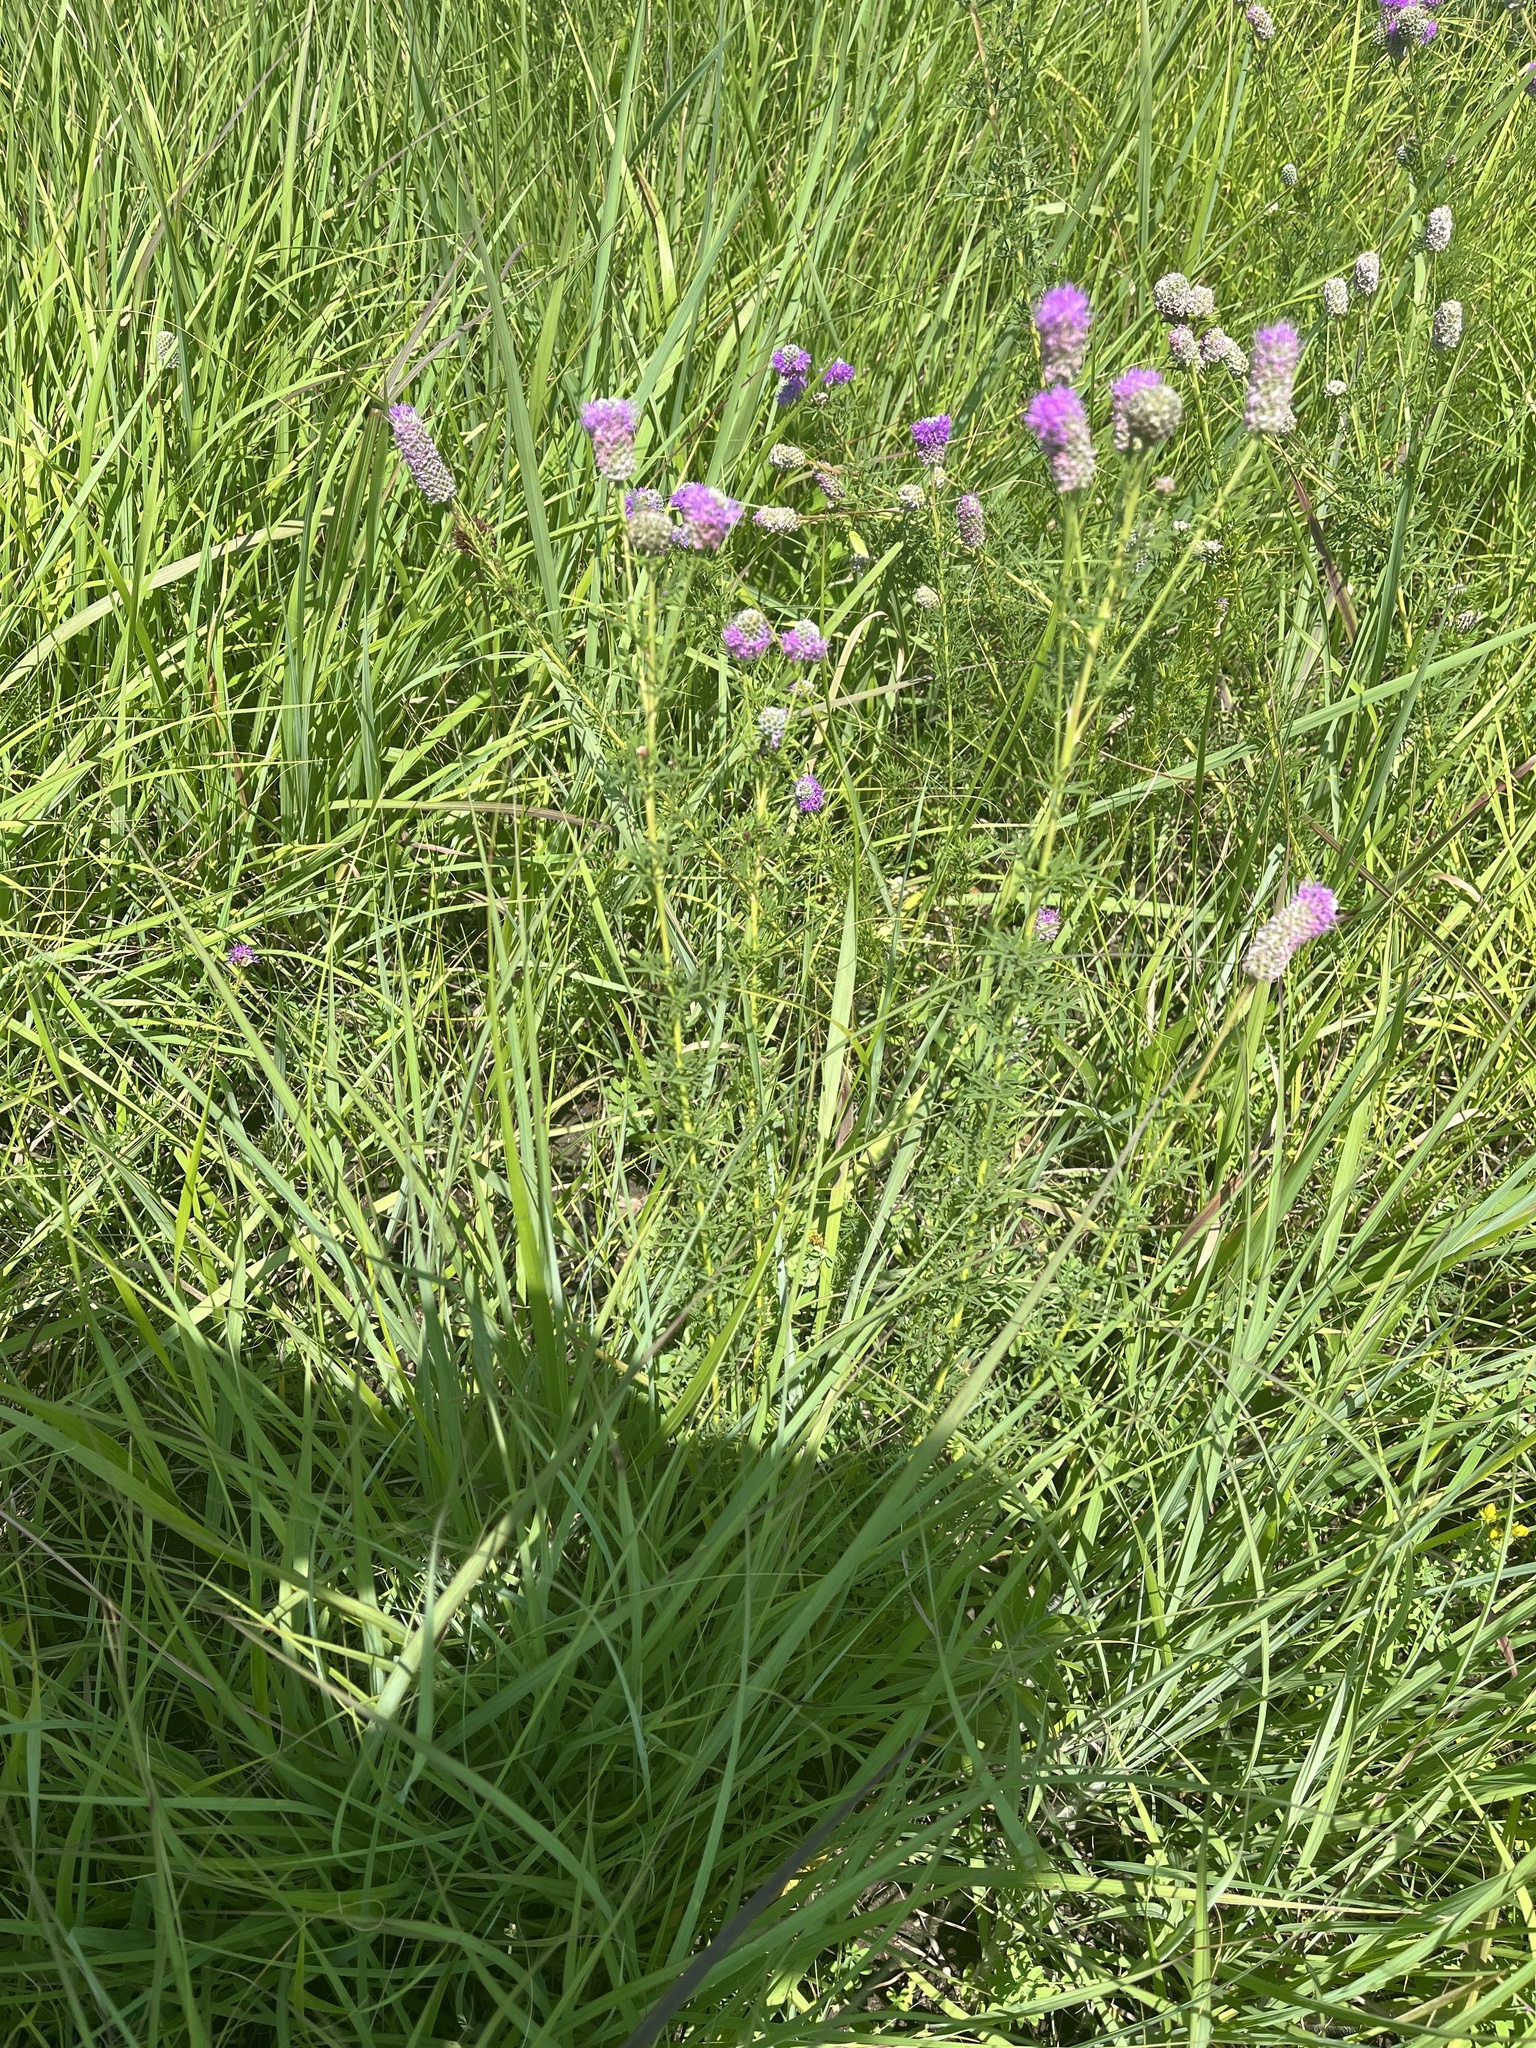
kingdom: Plantae
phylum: Tracheophyta
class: Magnoliopsida
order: Fabales
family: Fabaceae
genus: Dalea
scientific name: Dalea purpurea
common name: Purple prairie-clover
